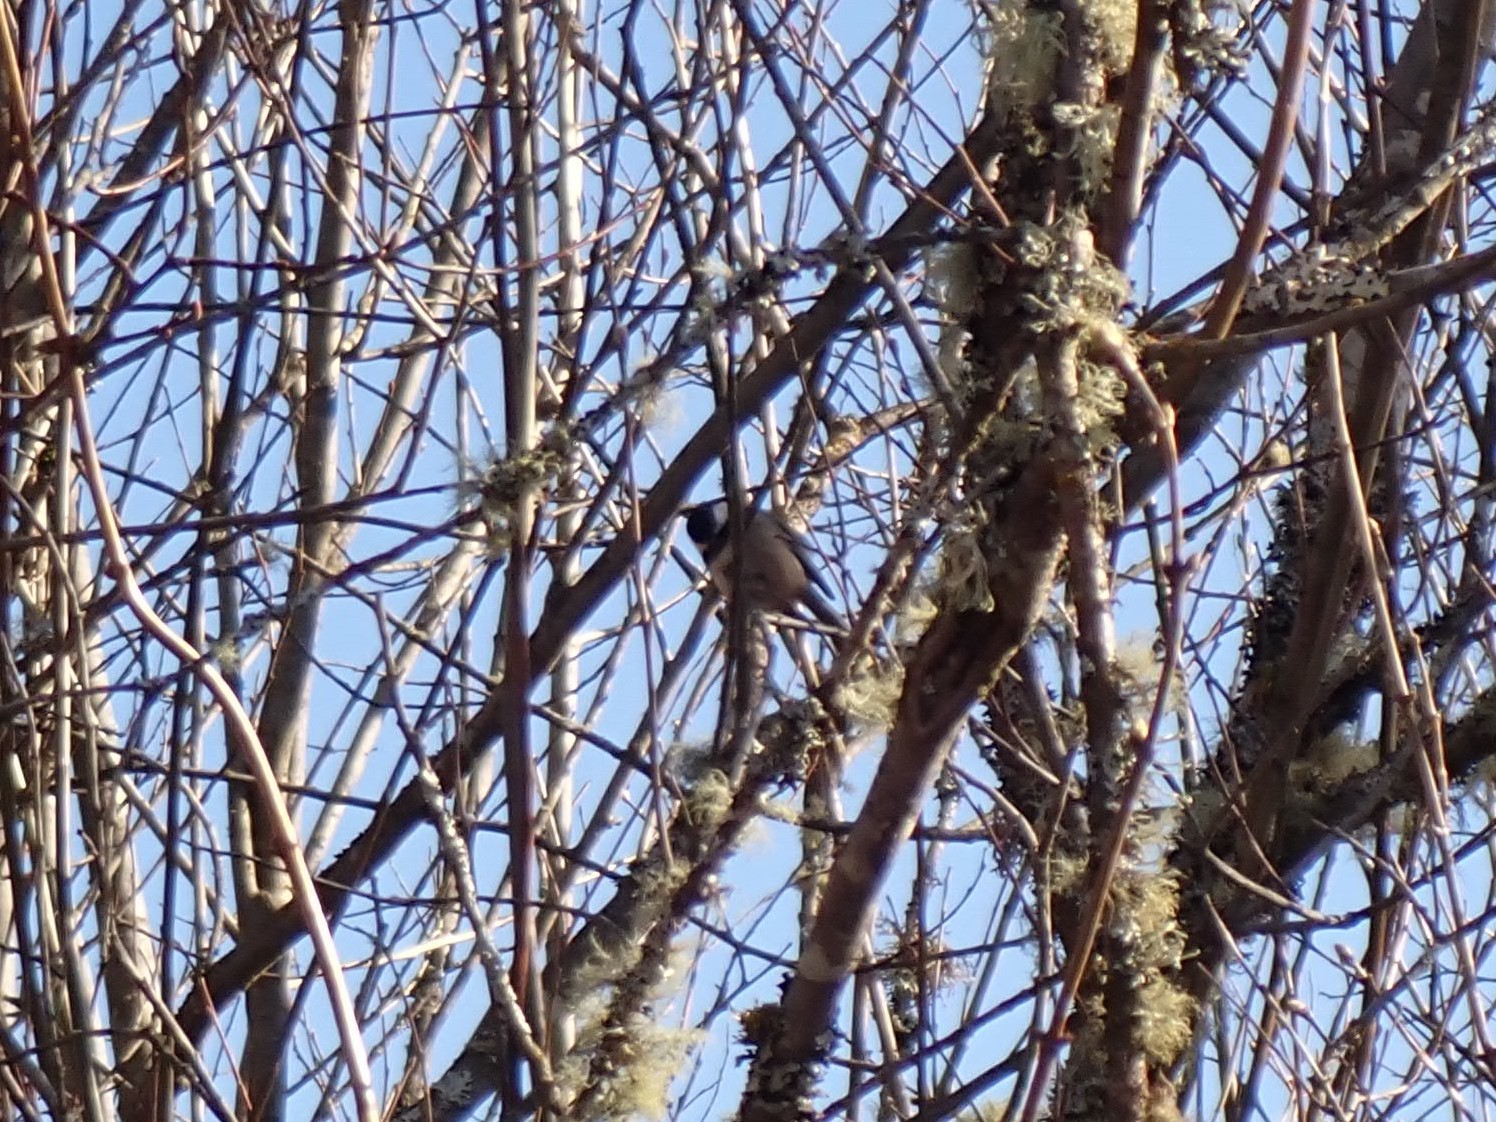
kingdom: Animalia
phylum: Chordata
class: Aves
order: Passeriformes
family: Paridae
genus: Poecile
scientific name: Poecile atricapillus
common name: Black-capped chickadee
